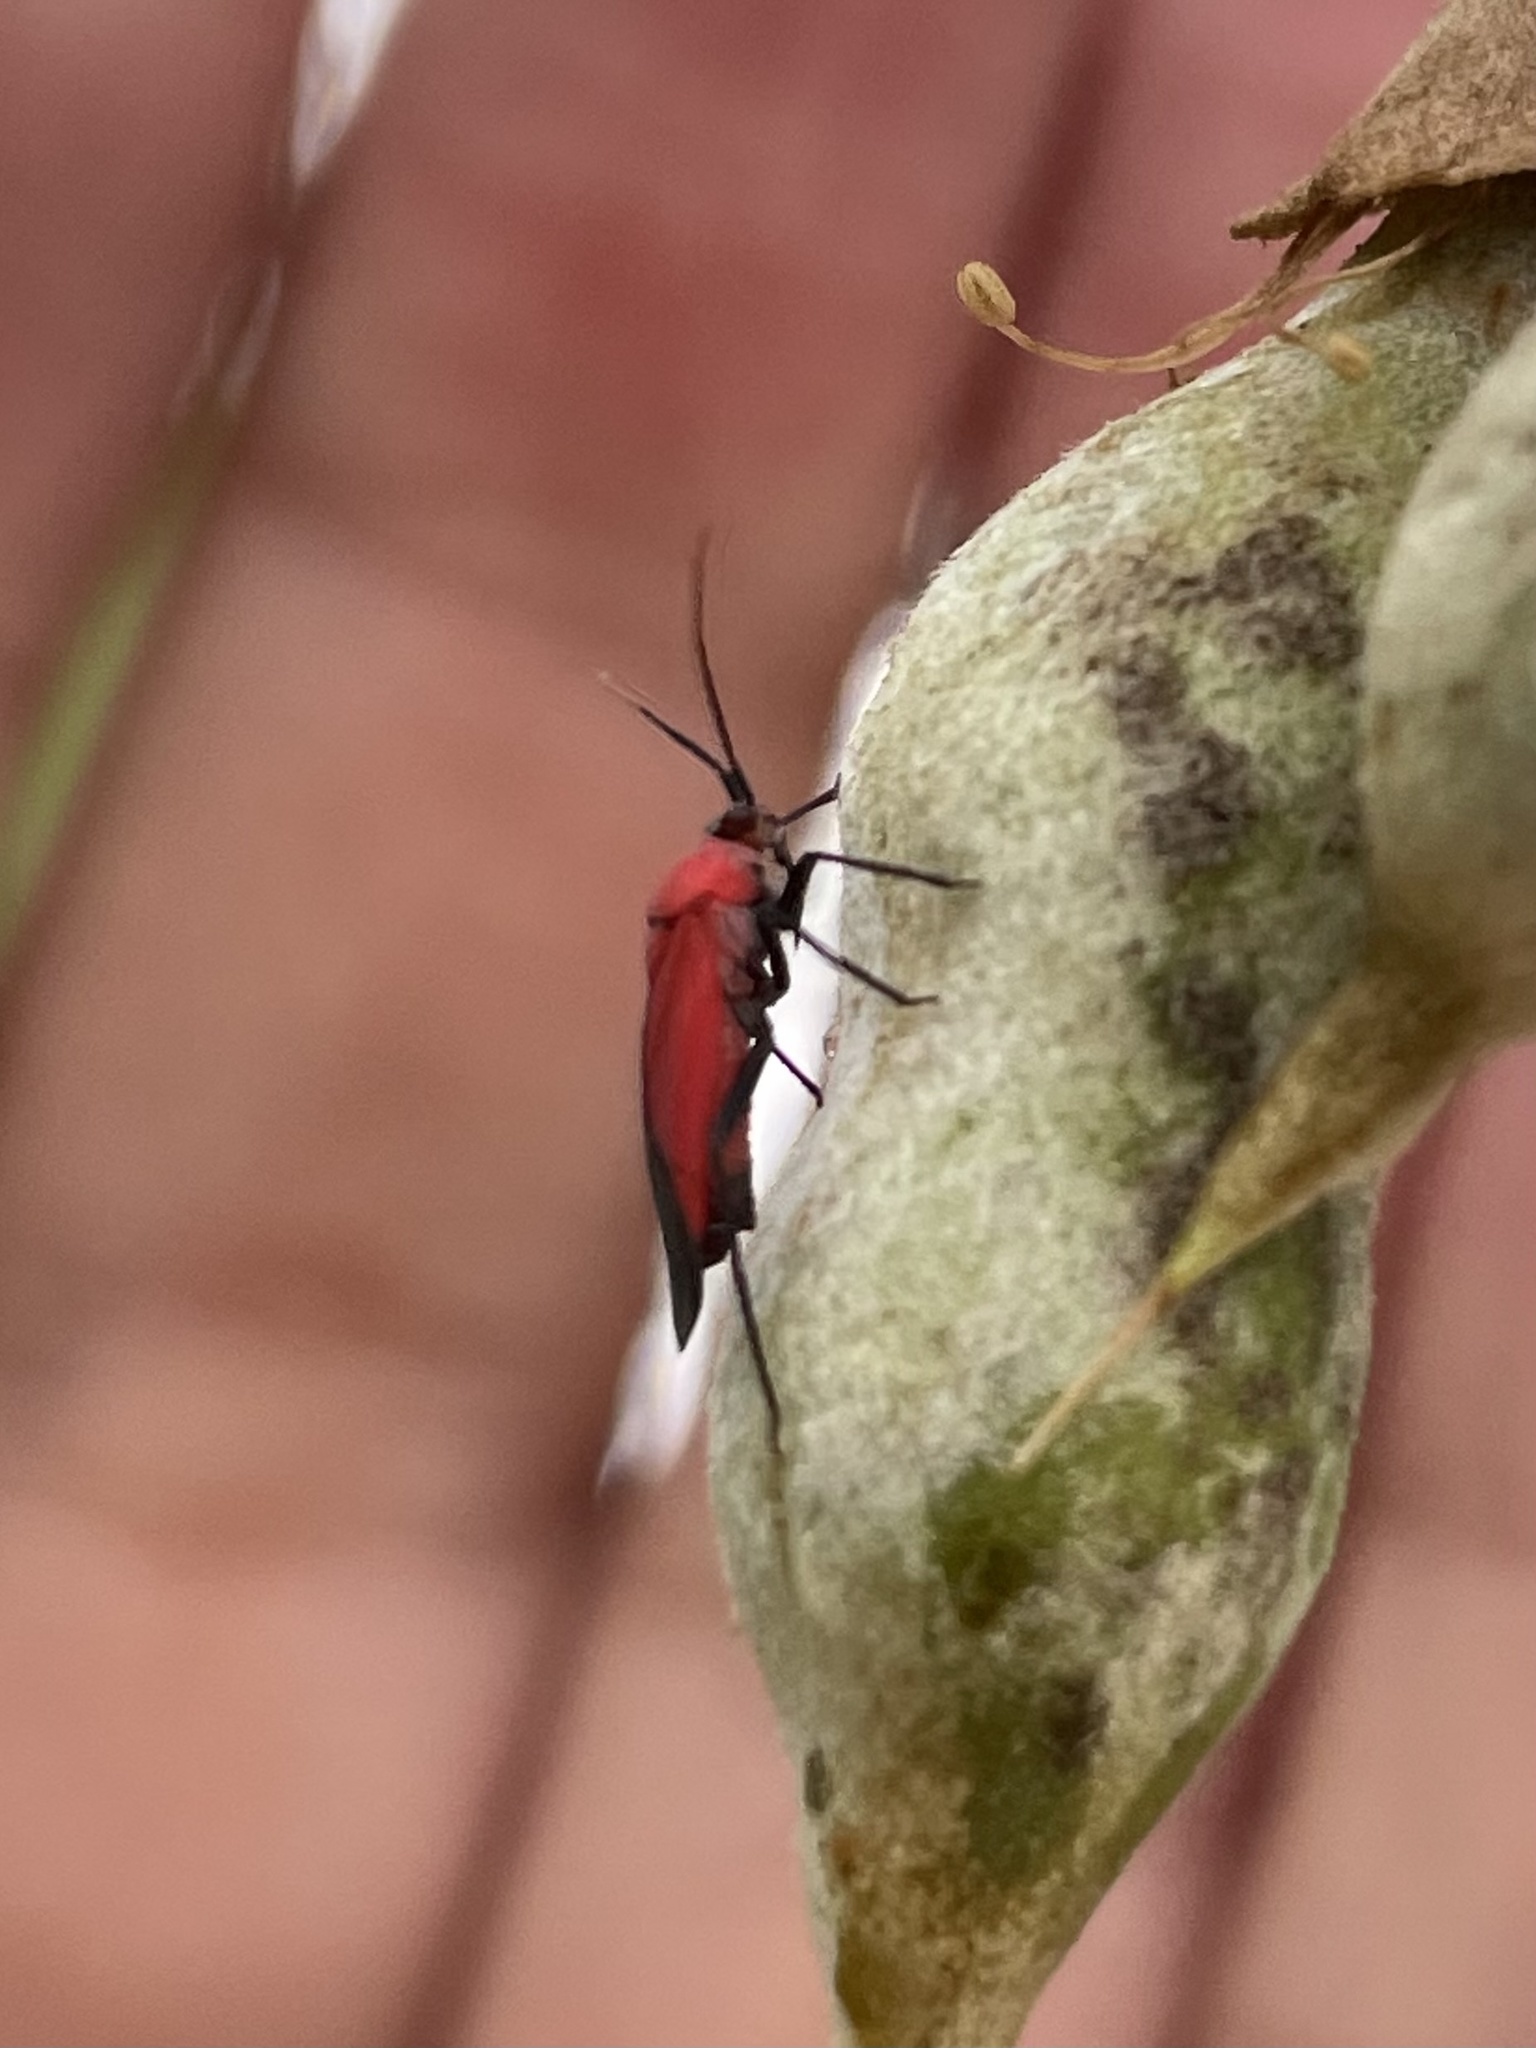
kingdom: Animalia
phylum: Arthropoda
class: Insecta
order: Hemiptera
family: Miridae
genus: Lopidea
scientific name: Lopidea major
